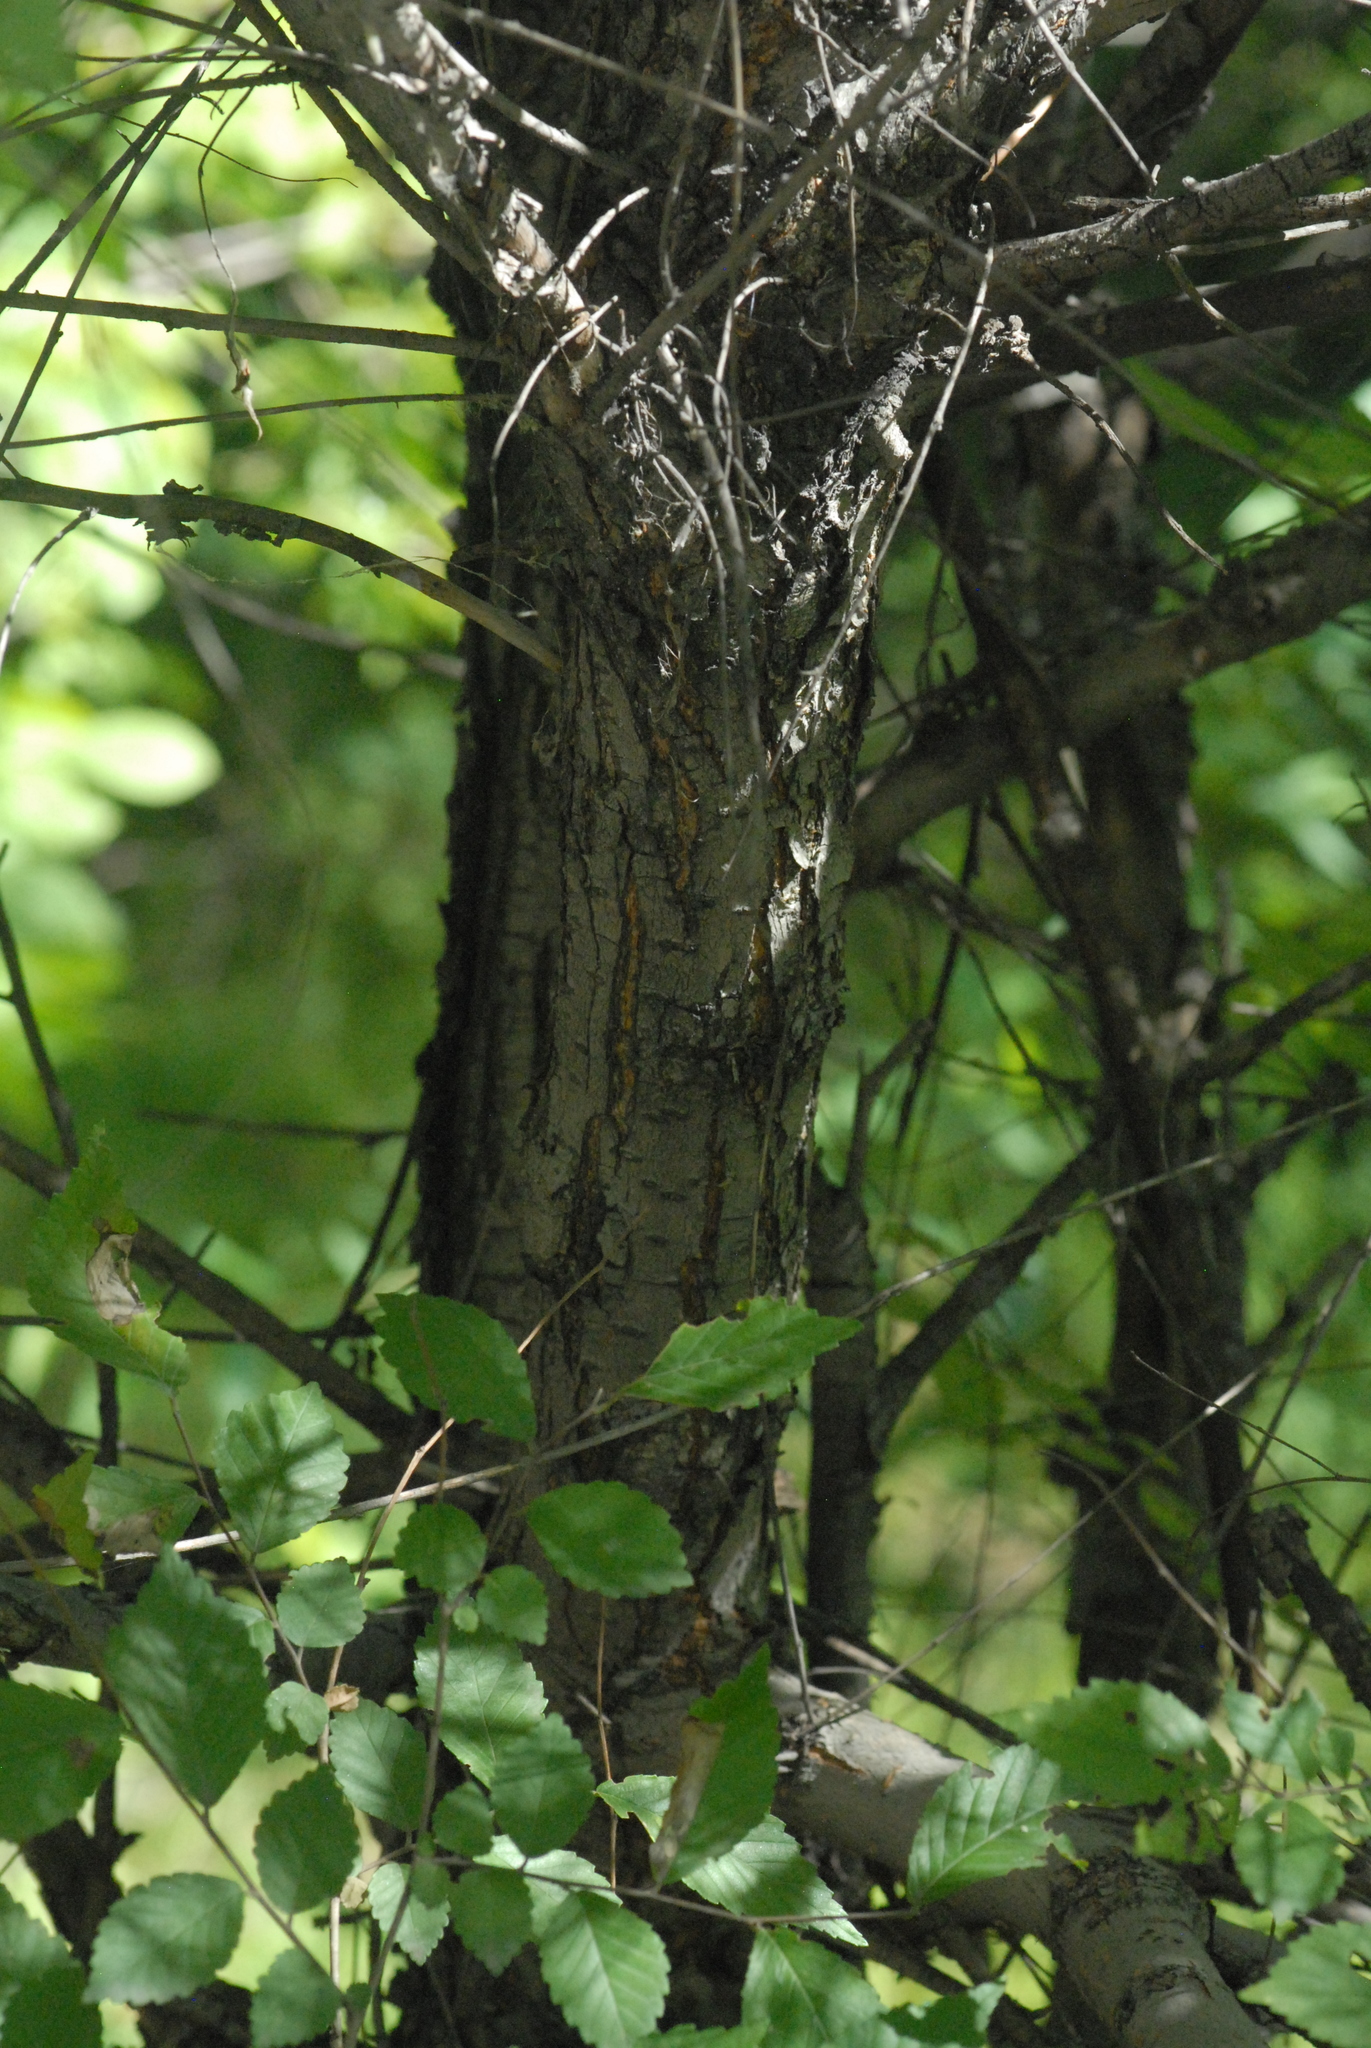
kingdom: Plantae
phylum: Tracheophyta
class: Magnoliopsida
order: Rosales
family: Ulmaceae
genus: Ulmus
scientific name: Ulmus pumila
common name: Siberian elm
